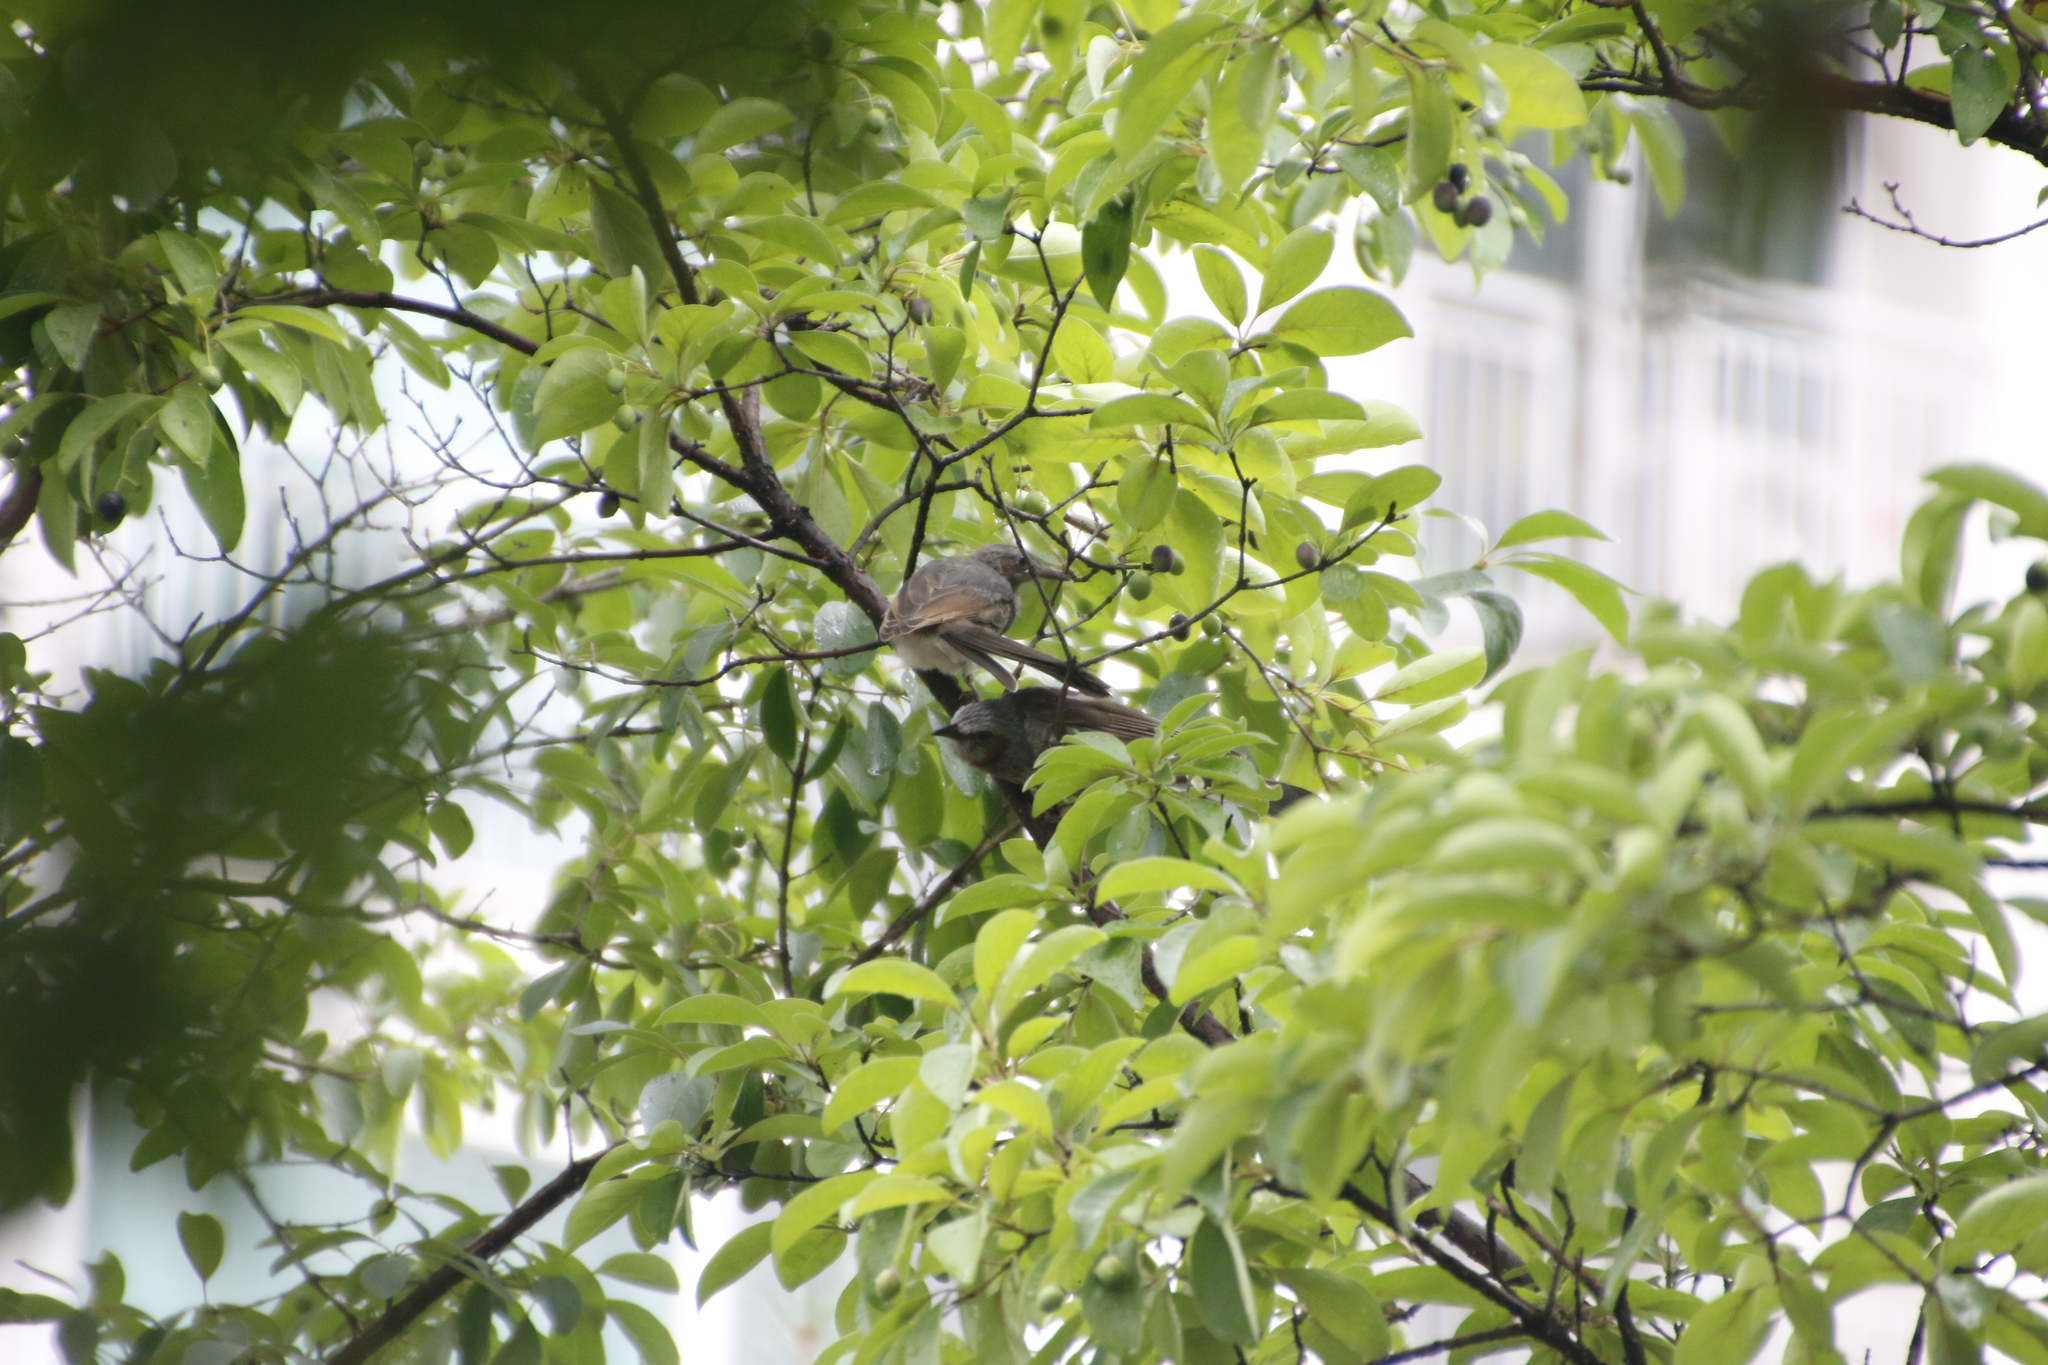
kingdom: Animalia
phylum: Chordata
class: Aves
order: Passeriformes
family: Pycnonotidae
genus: Hypsipetes
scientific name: Hypsipetes amaurotis
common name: Brown-eared bulbul
